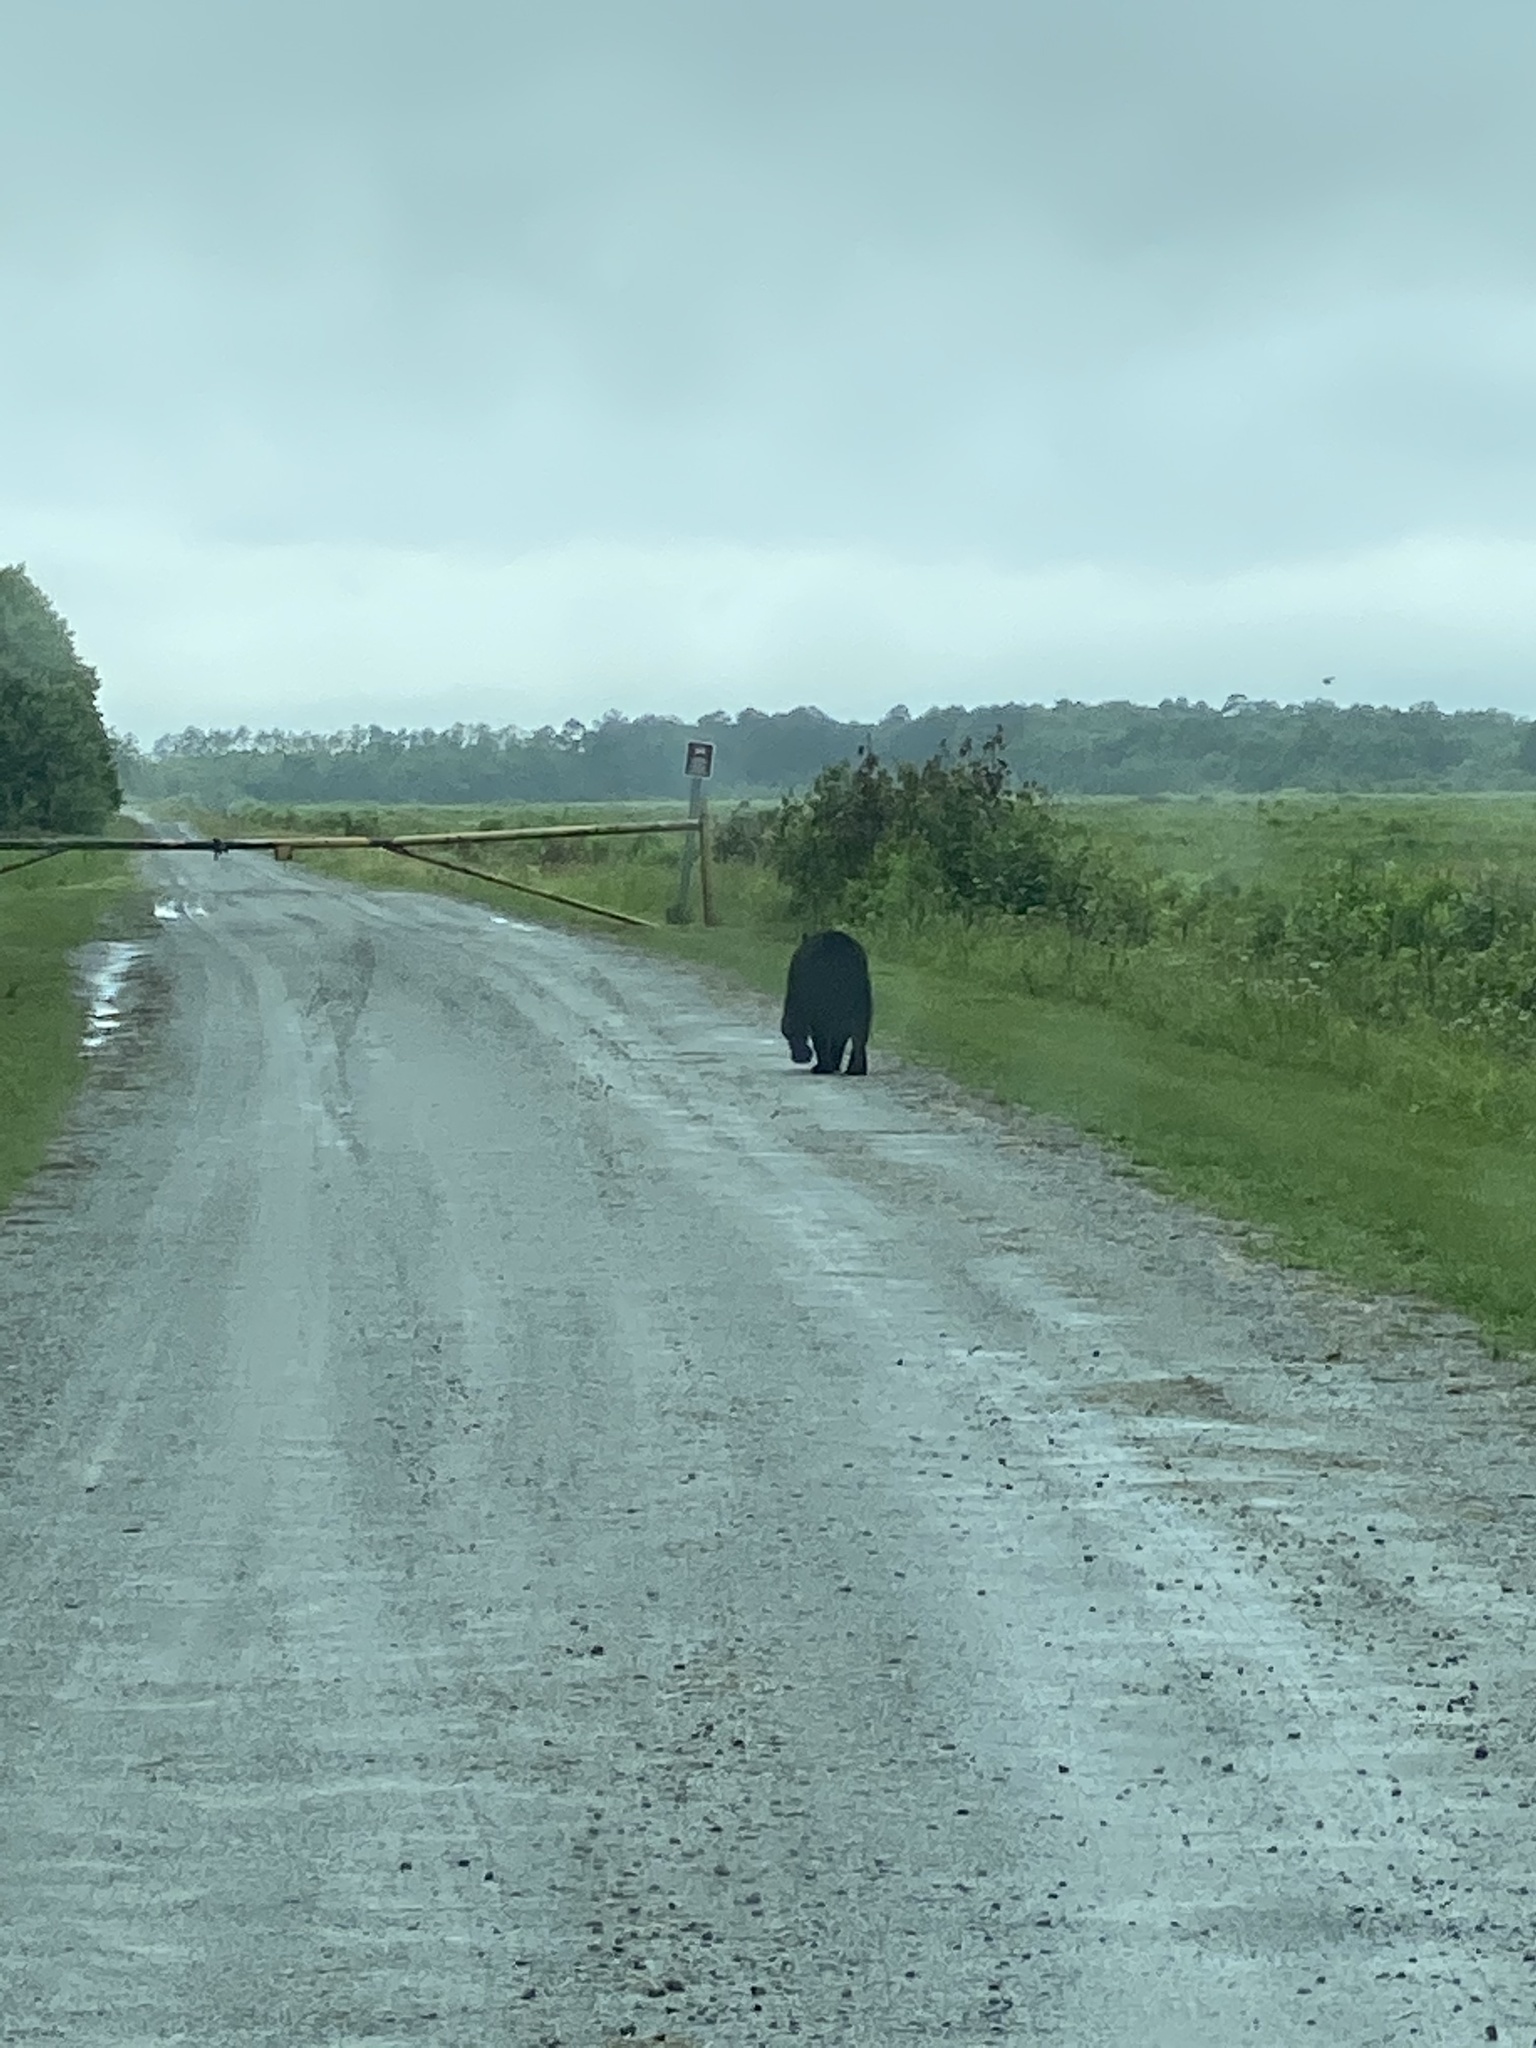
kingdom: Animalia
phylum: Chordata
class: Mammalia
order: Carnivora
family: Ursidae
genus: Ursus
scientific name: Ursus americanus
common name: American black bear
